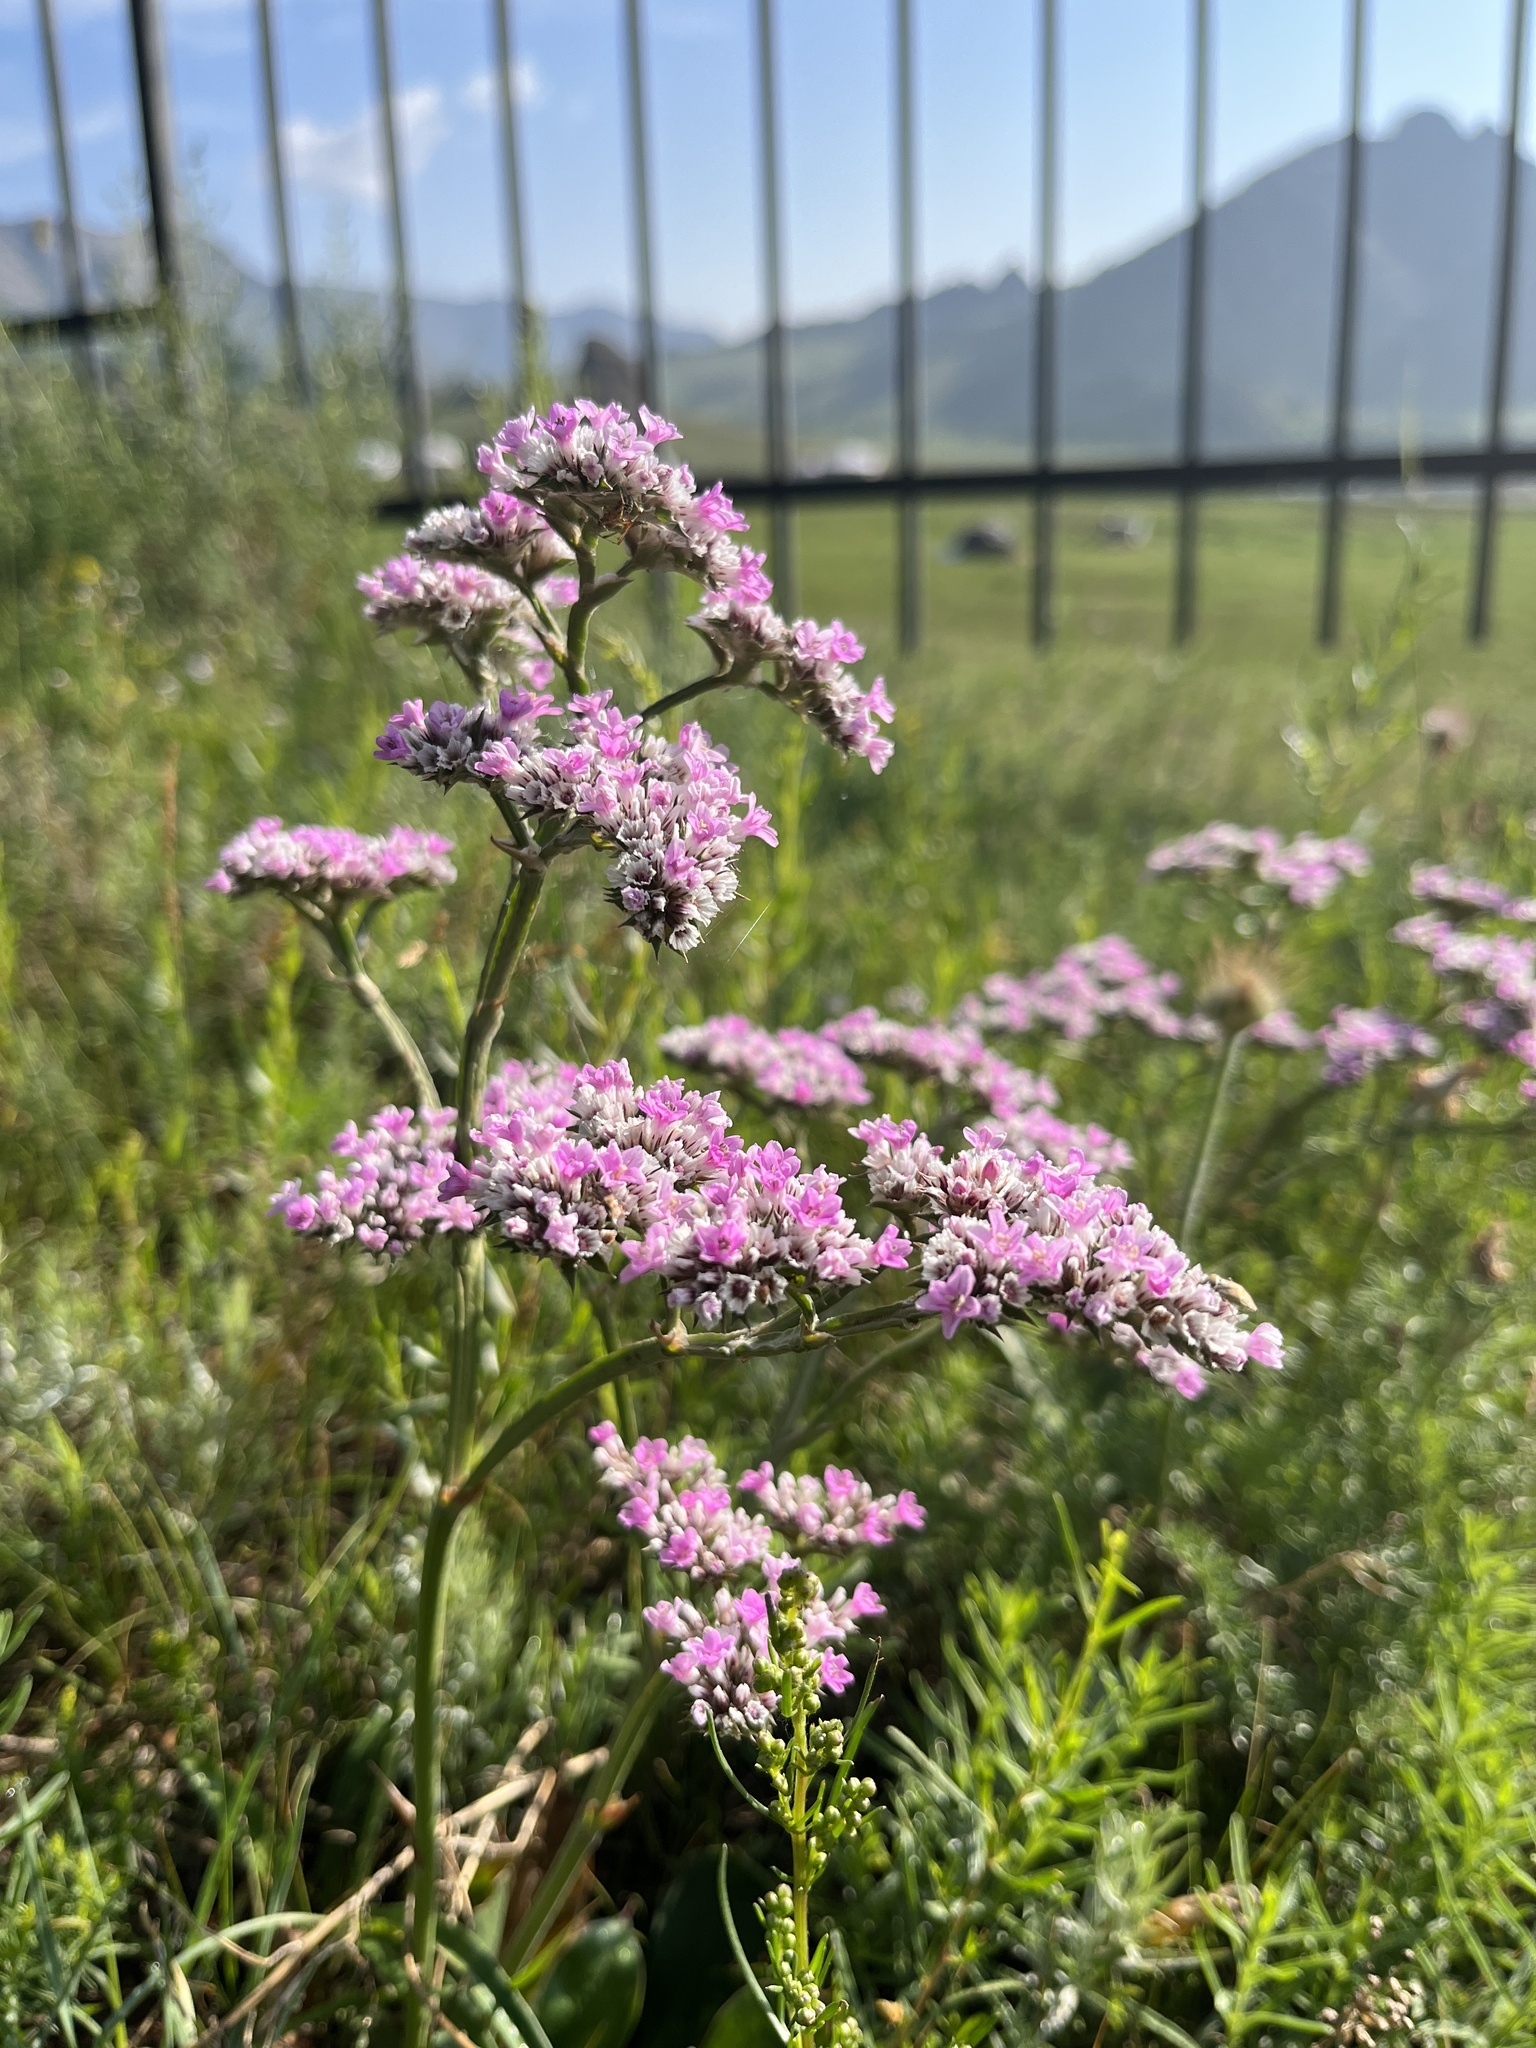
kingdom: Plantae
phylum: Tracheophyta
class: Magnoliopsida
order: Caryophyllales
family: Plumbaginaceae
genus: Goniolimon
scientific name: Goniolimon speciosum
